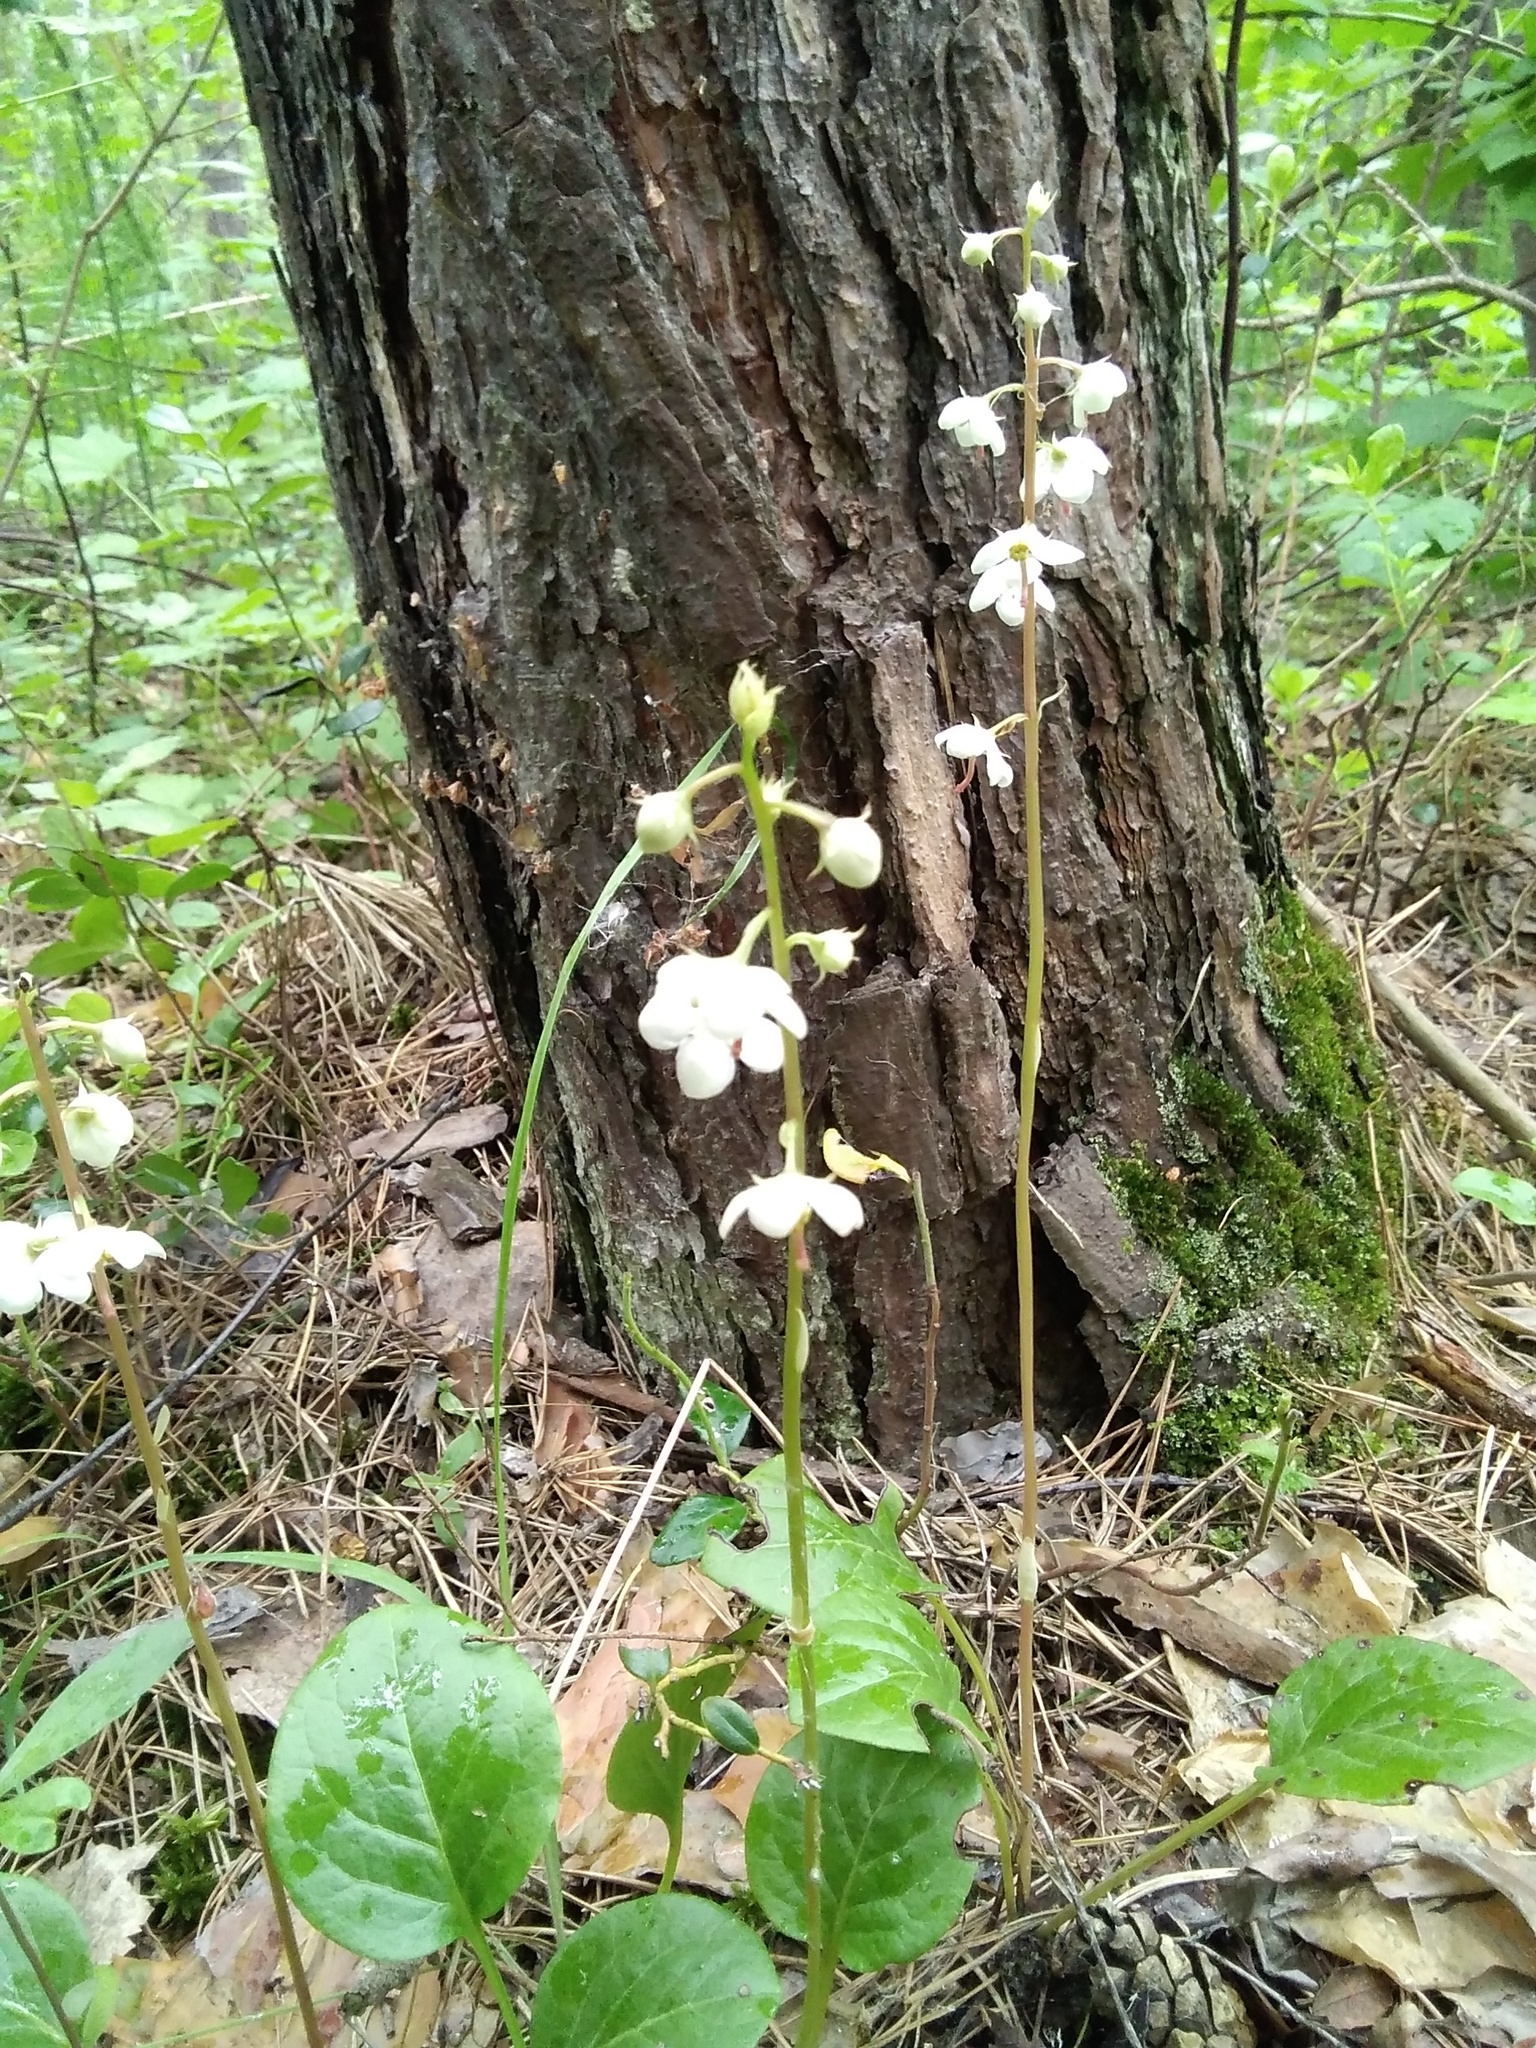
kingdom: Plantae
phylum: Tracheophyta
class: Magnoliopsida
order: Ericales
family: Ericaceae
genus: Pyrola
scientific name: Pyrola rotundifolia
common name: Round-leaved wintergreen
